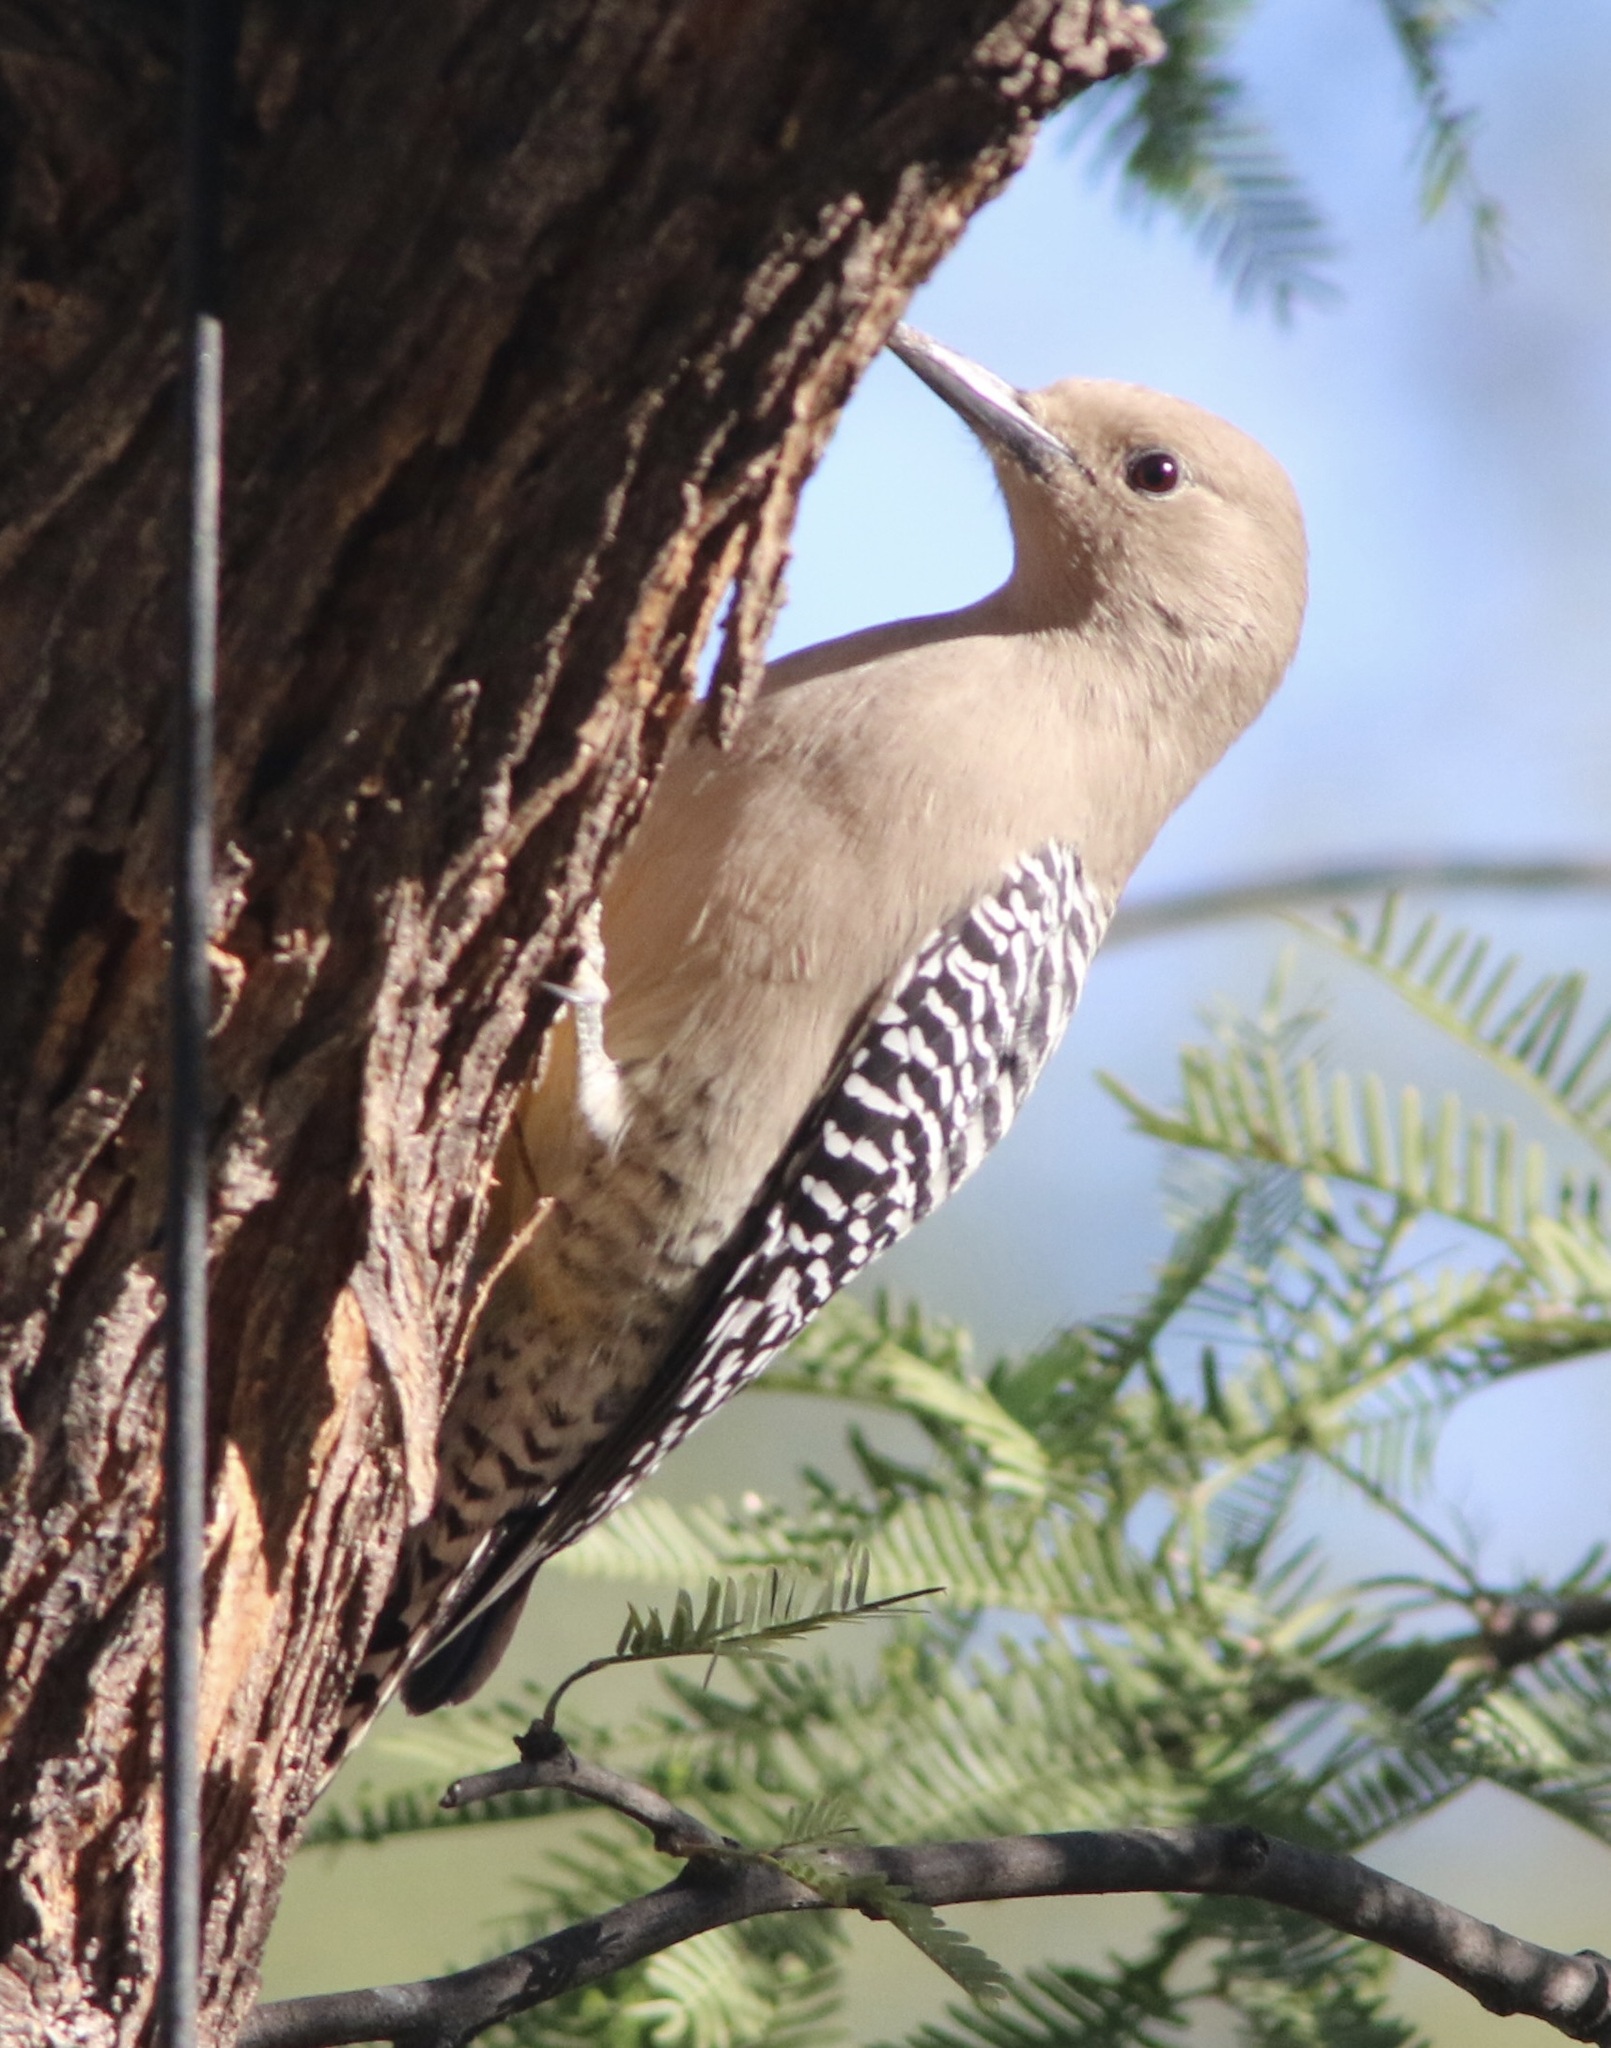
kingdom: Animalia
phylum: Chordata
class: Aves
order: Piciformes
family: Picidae
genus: Melanerpes
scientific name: Melanerpes uropygialis
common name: Gila woodpecker
